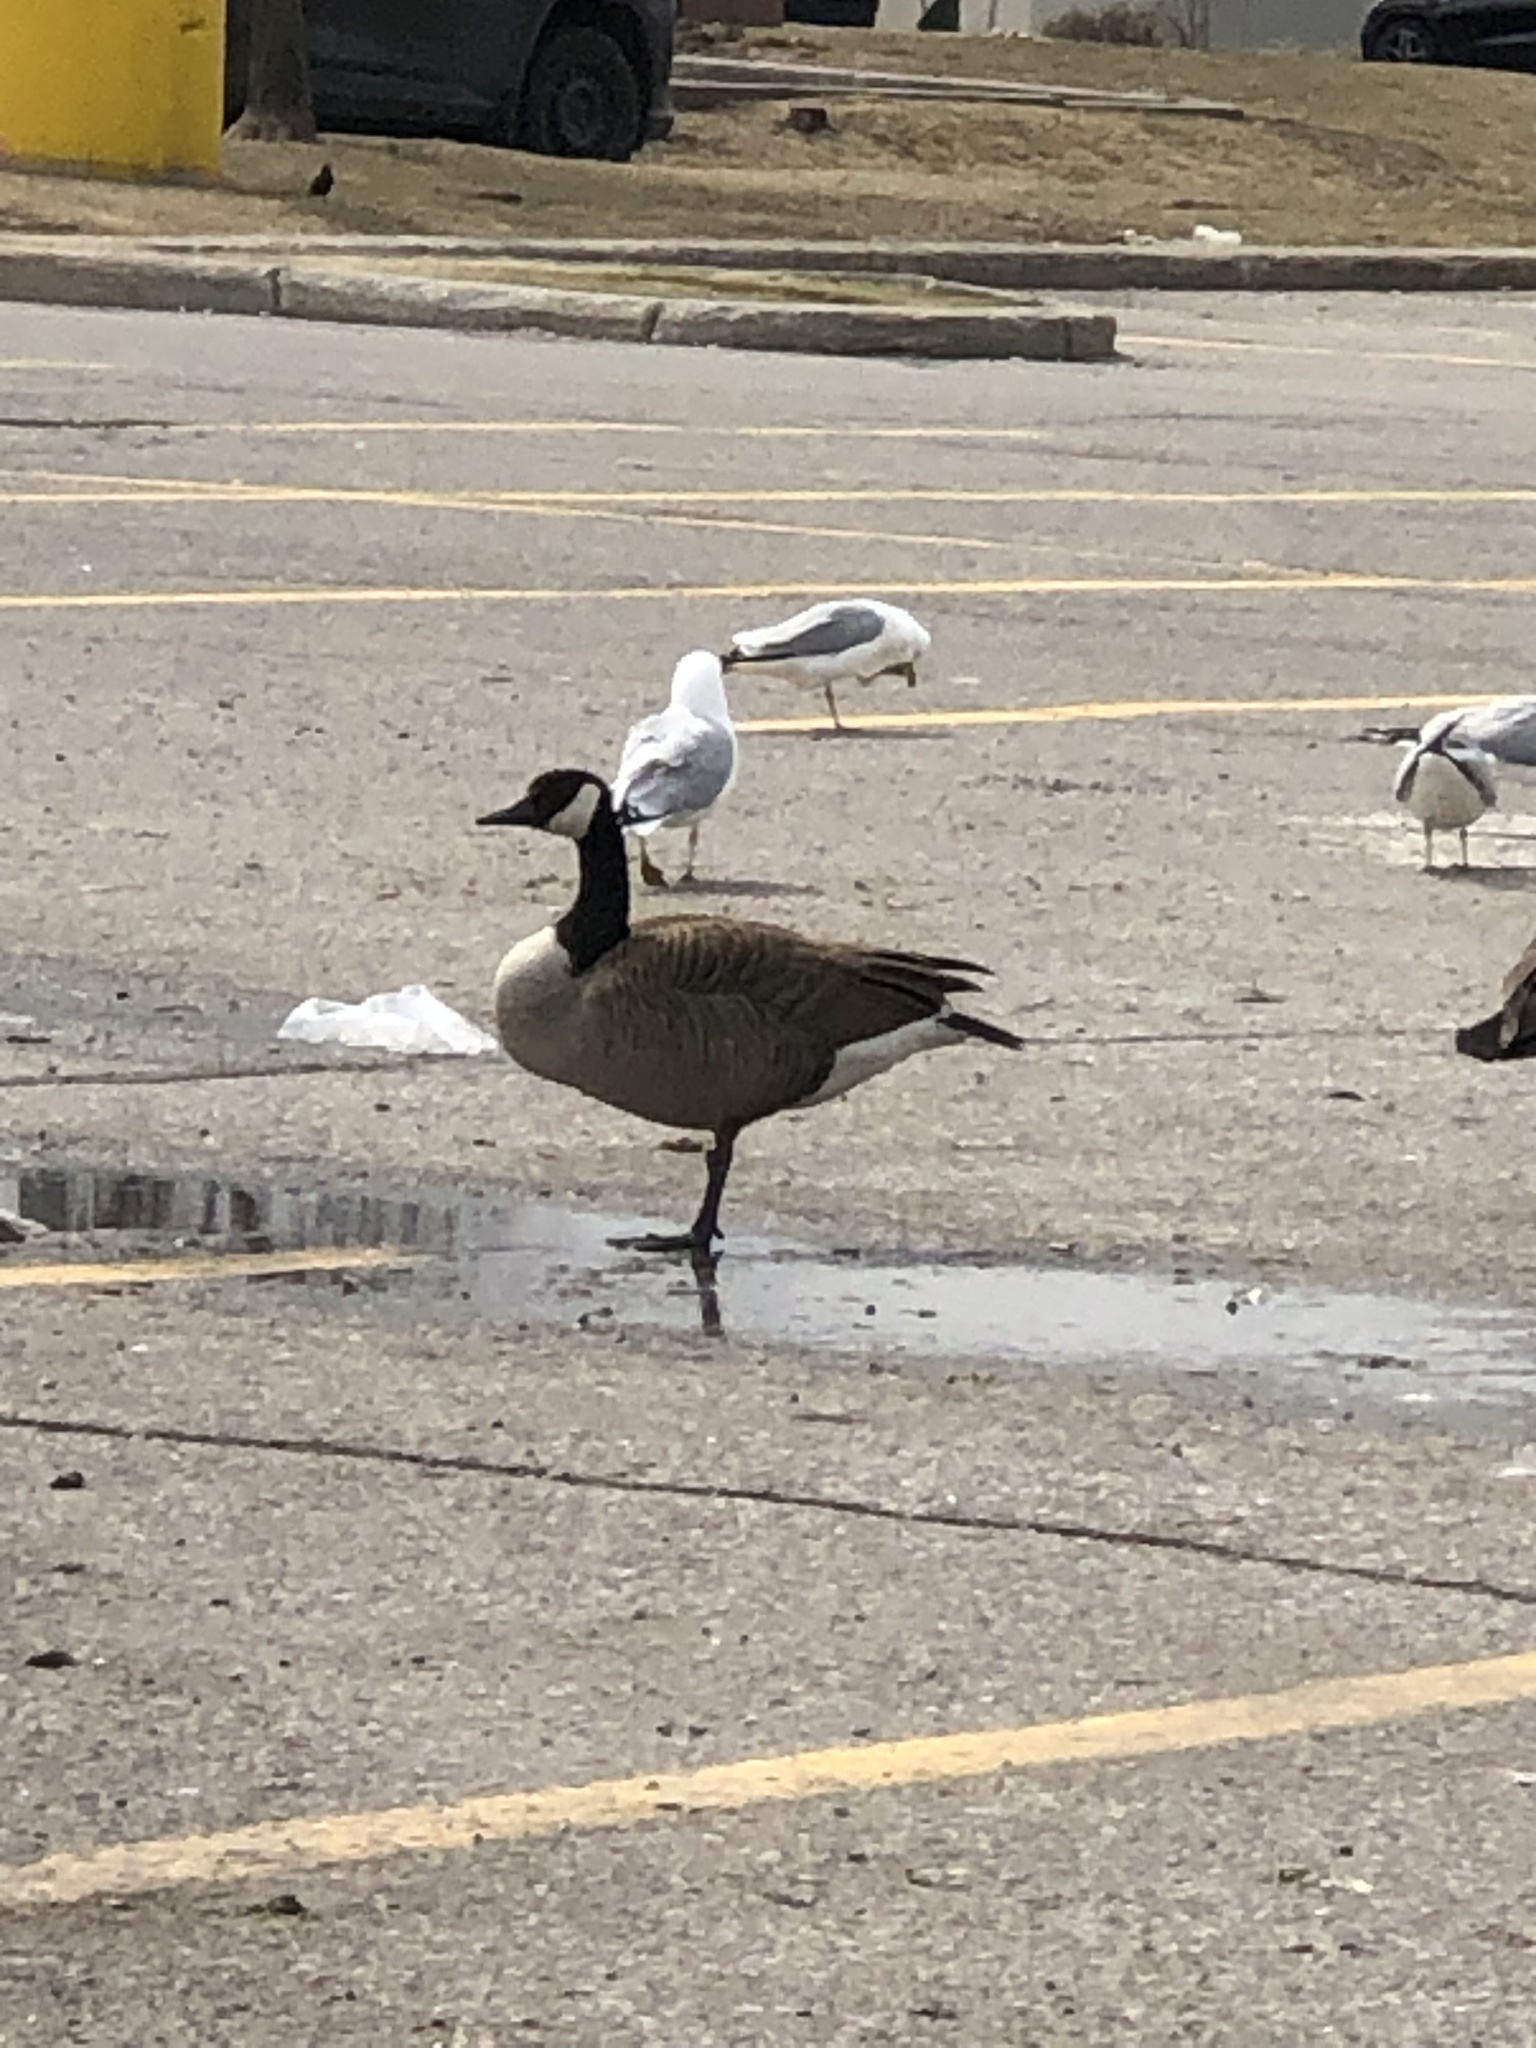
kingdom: Animalia
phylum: Chordata
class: Aves
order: Anseriformes
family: Anatidae
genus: Branta
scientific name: Branta canadensis
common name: Canada goose
